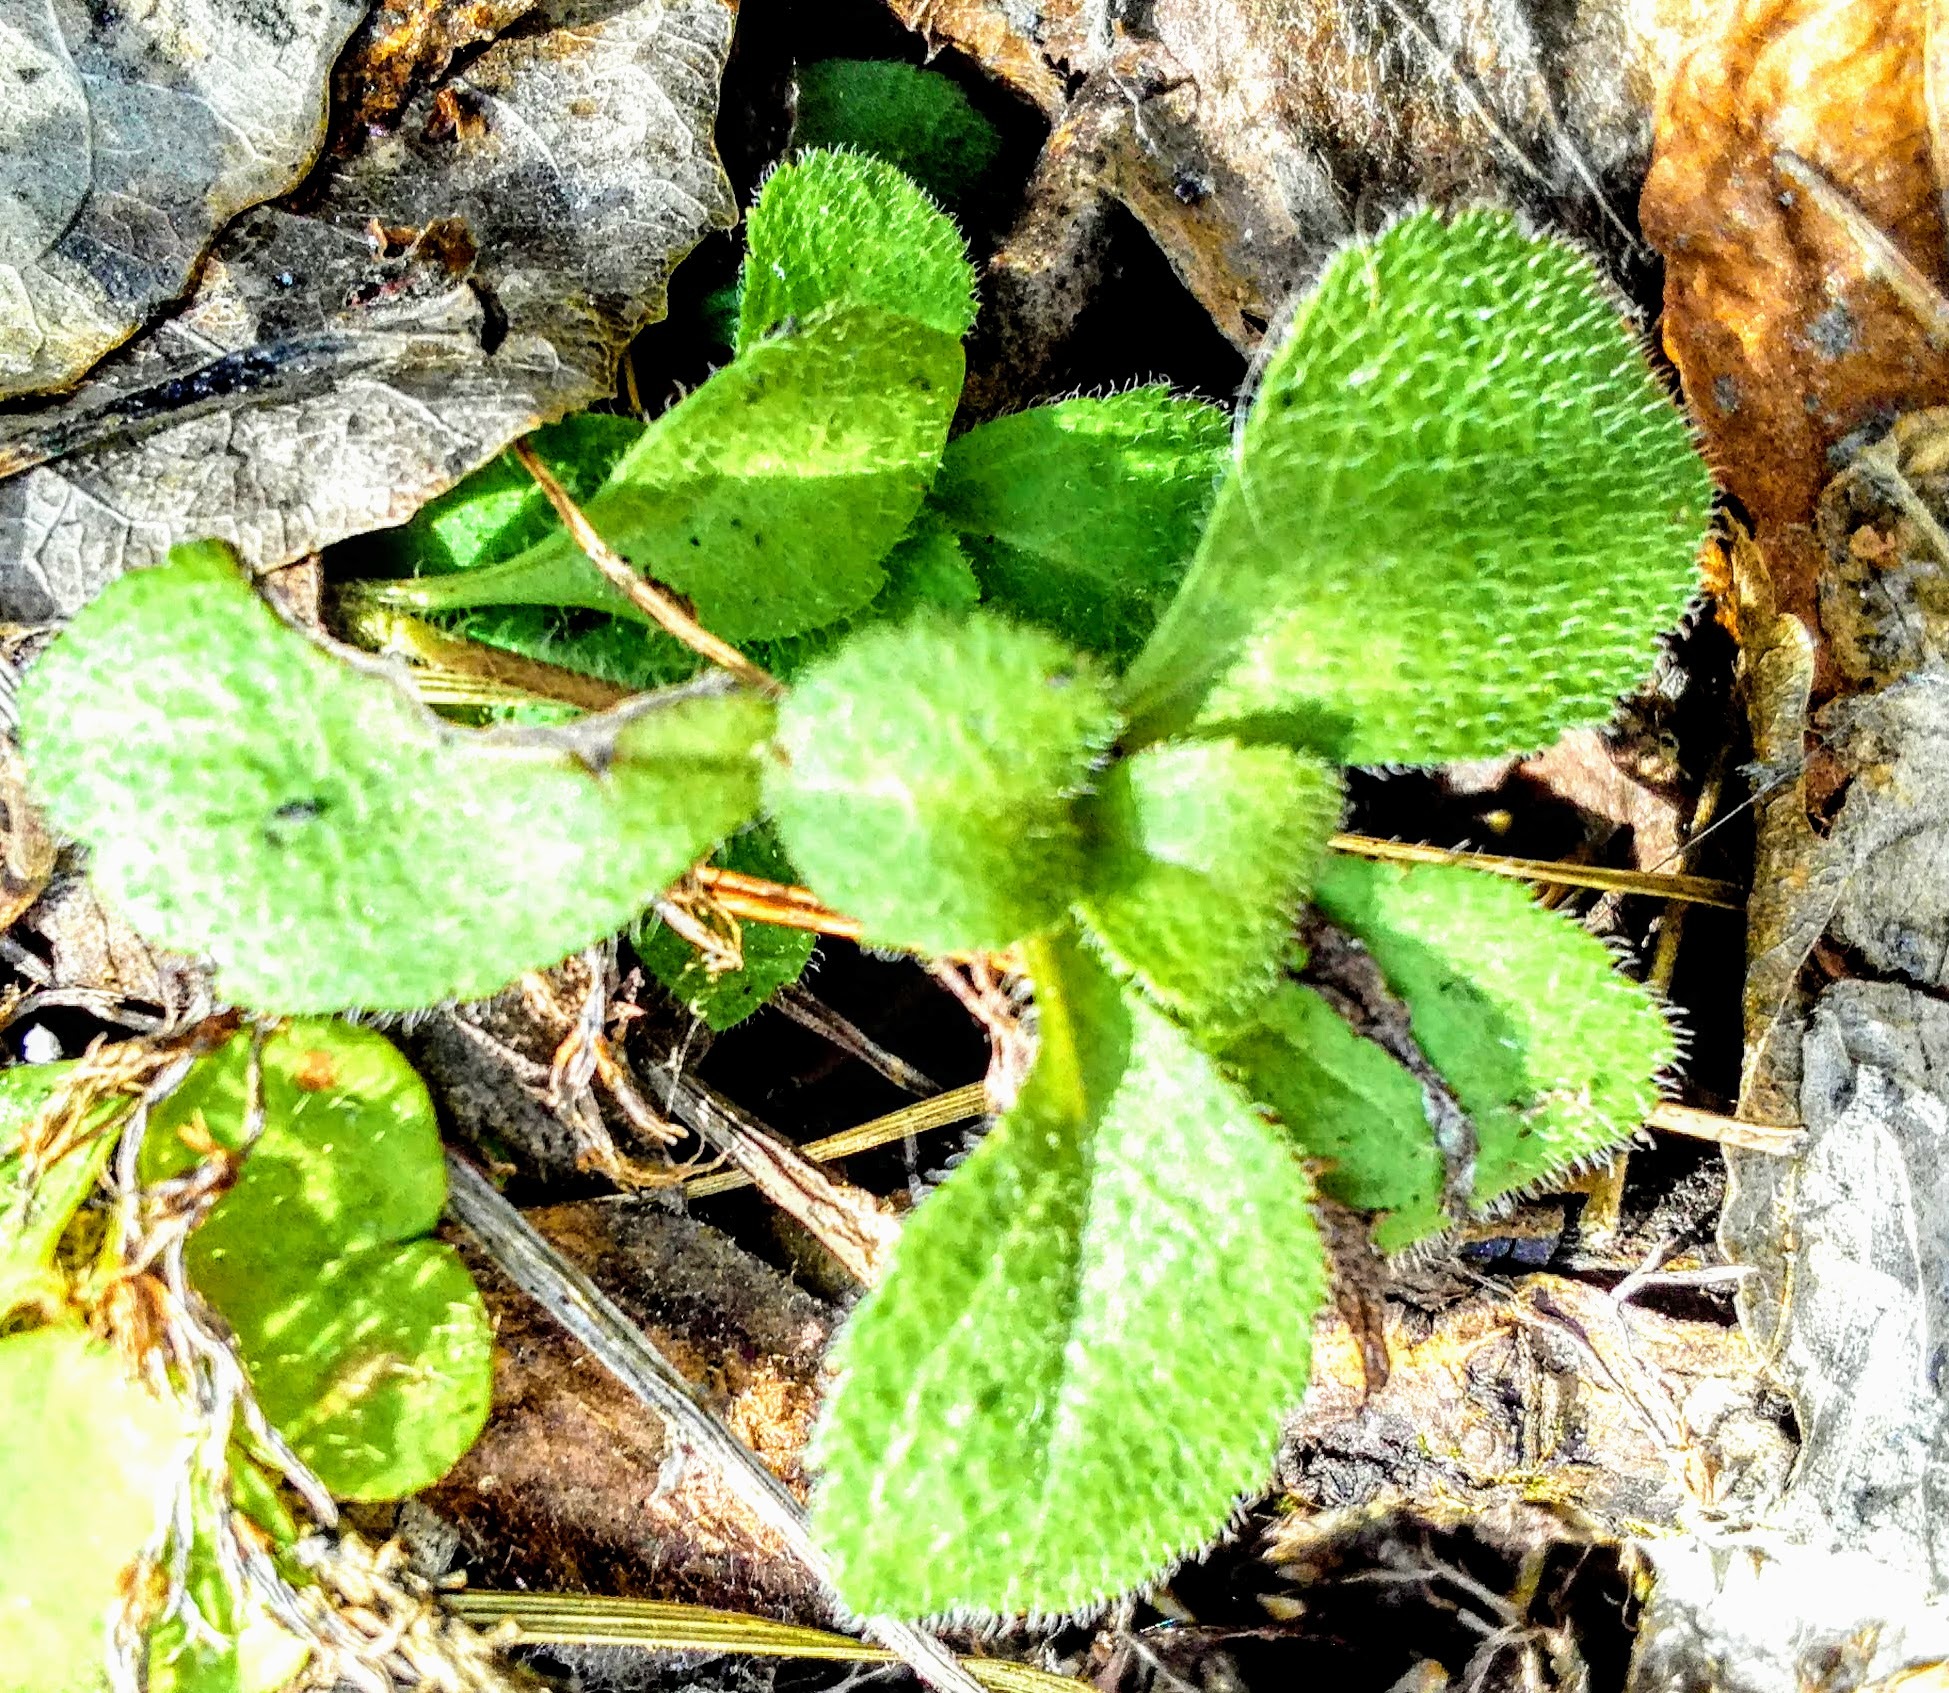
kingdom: Plantae
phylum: Tracheophyta
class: Magnoliopsida
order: Dipsacales
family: Caprifoliaceae
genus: Linnaea
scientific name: Linnaea borealis
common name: Twinflower
